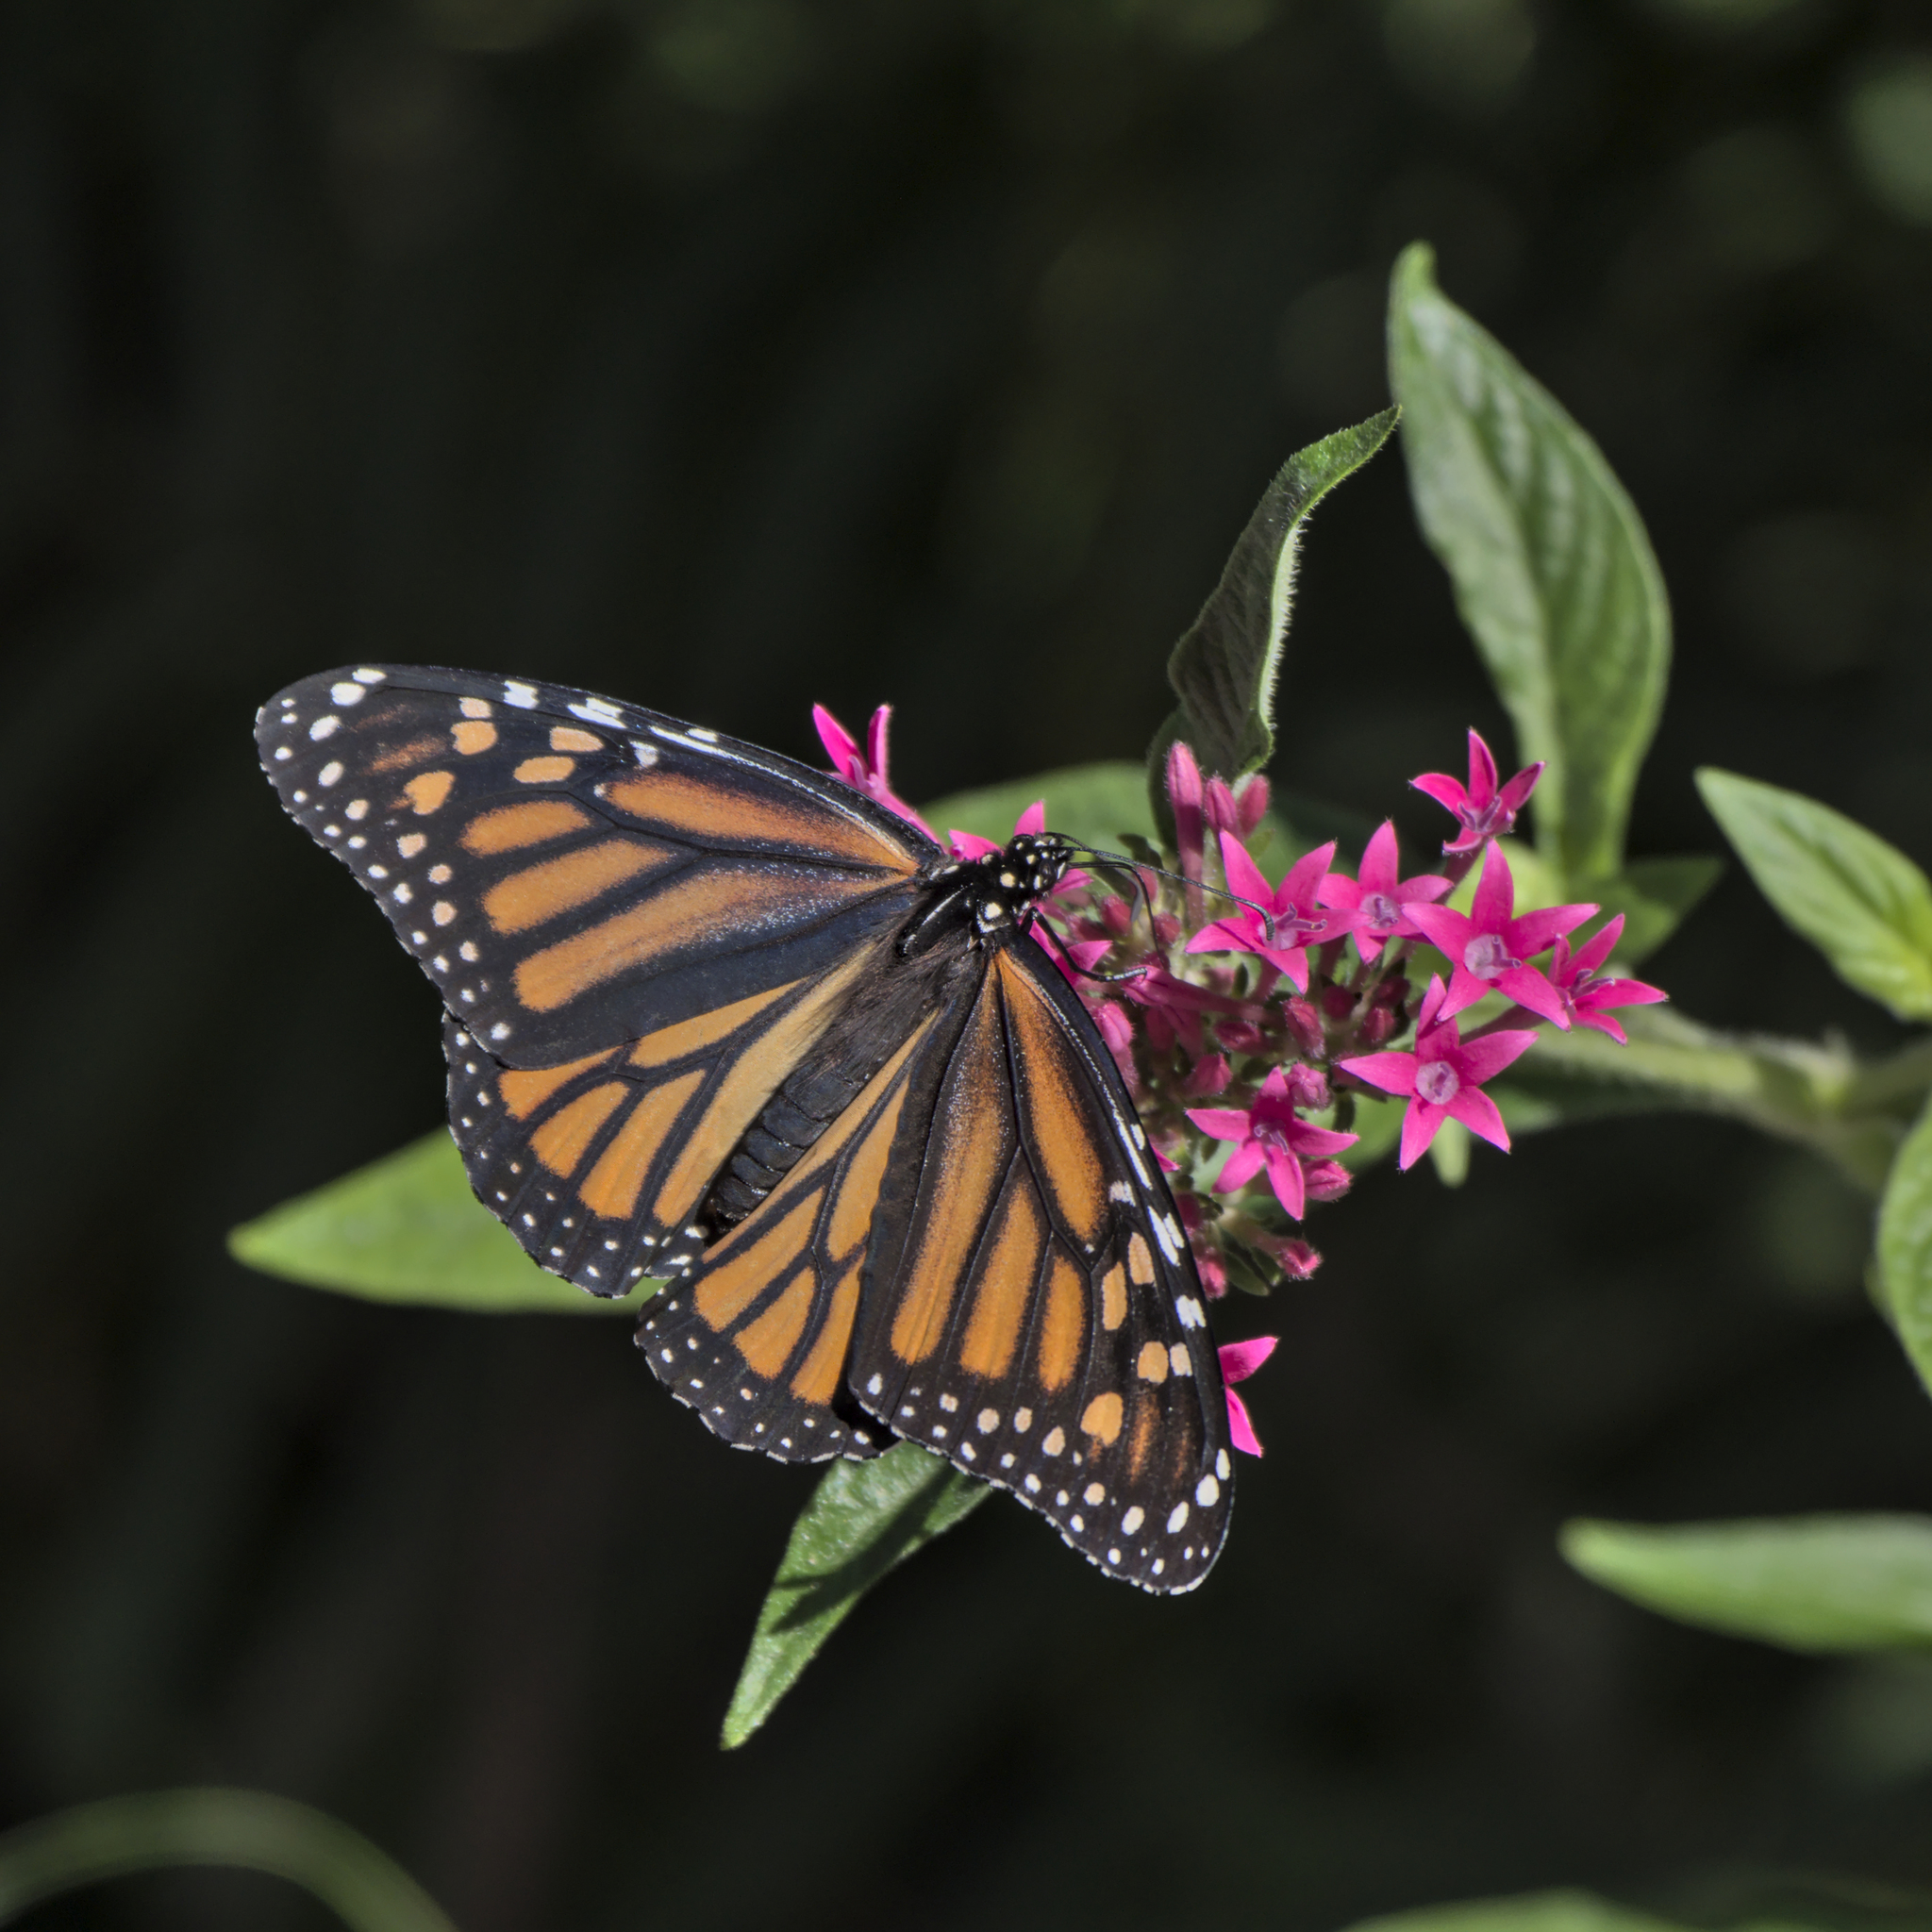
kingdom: Animalia
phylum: Arthropoda
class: Insecta
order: Lepidoptera
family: Nymphalidae
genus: Danaus
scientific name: Danaus plexippus
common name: Monarch
